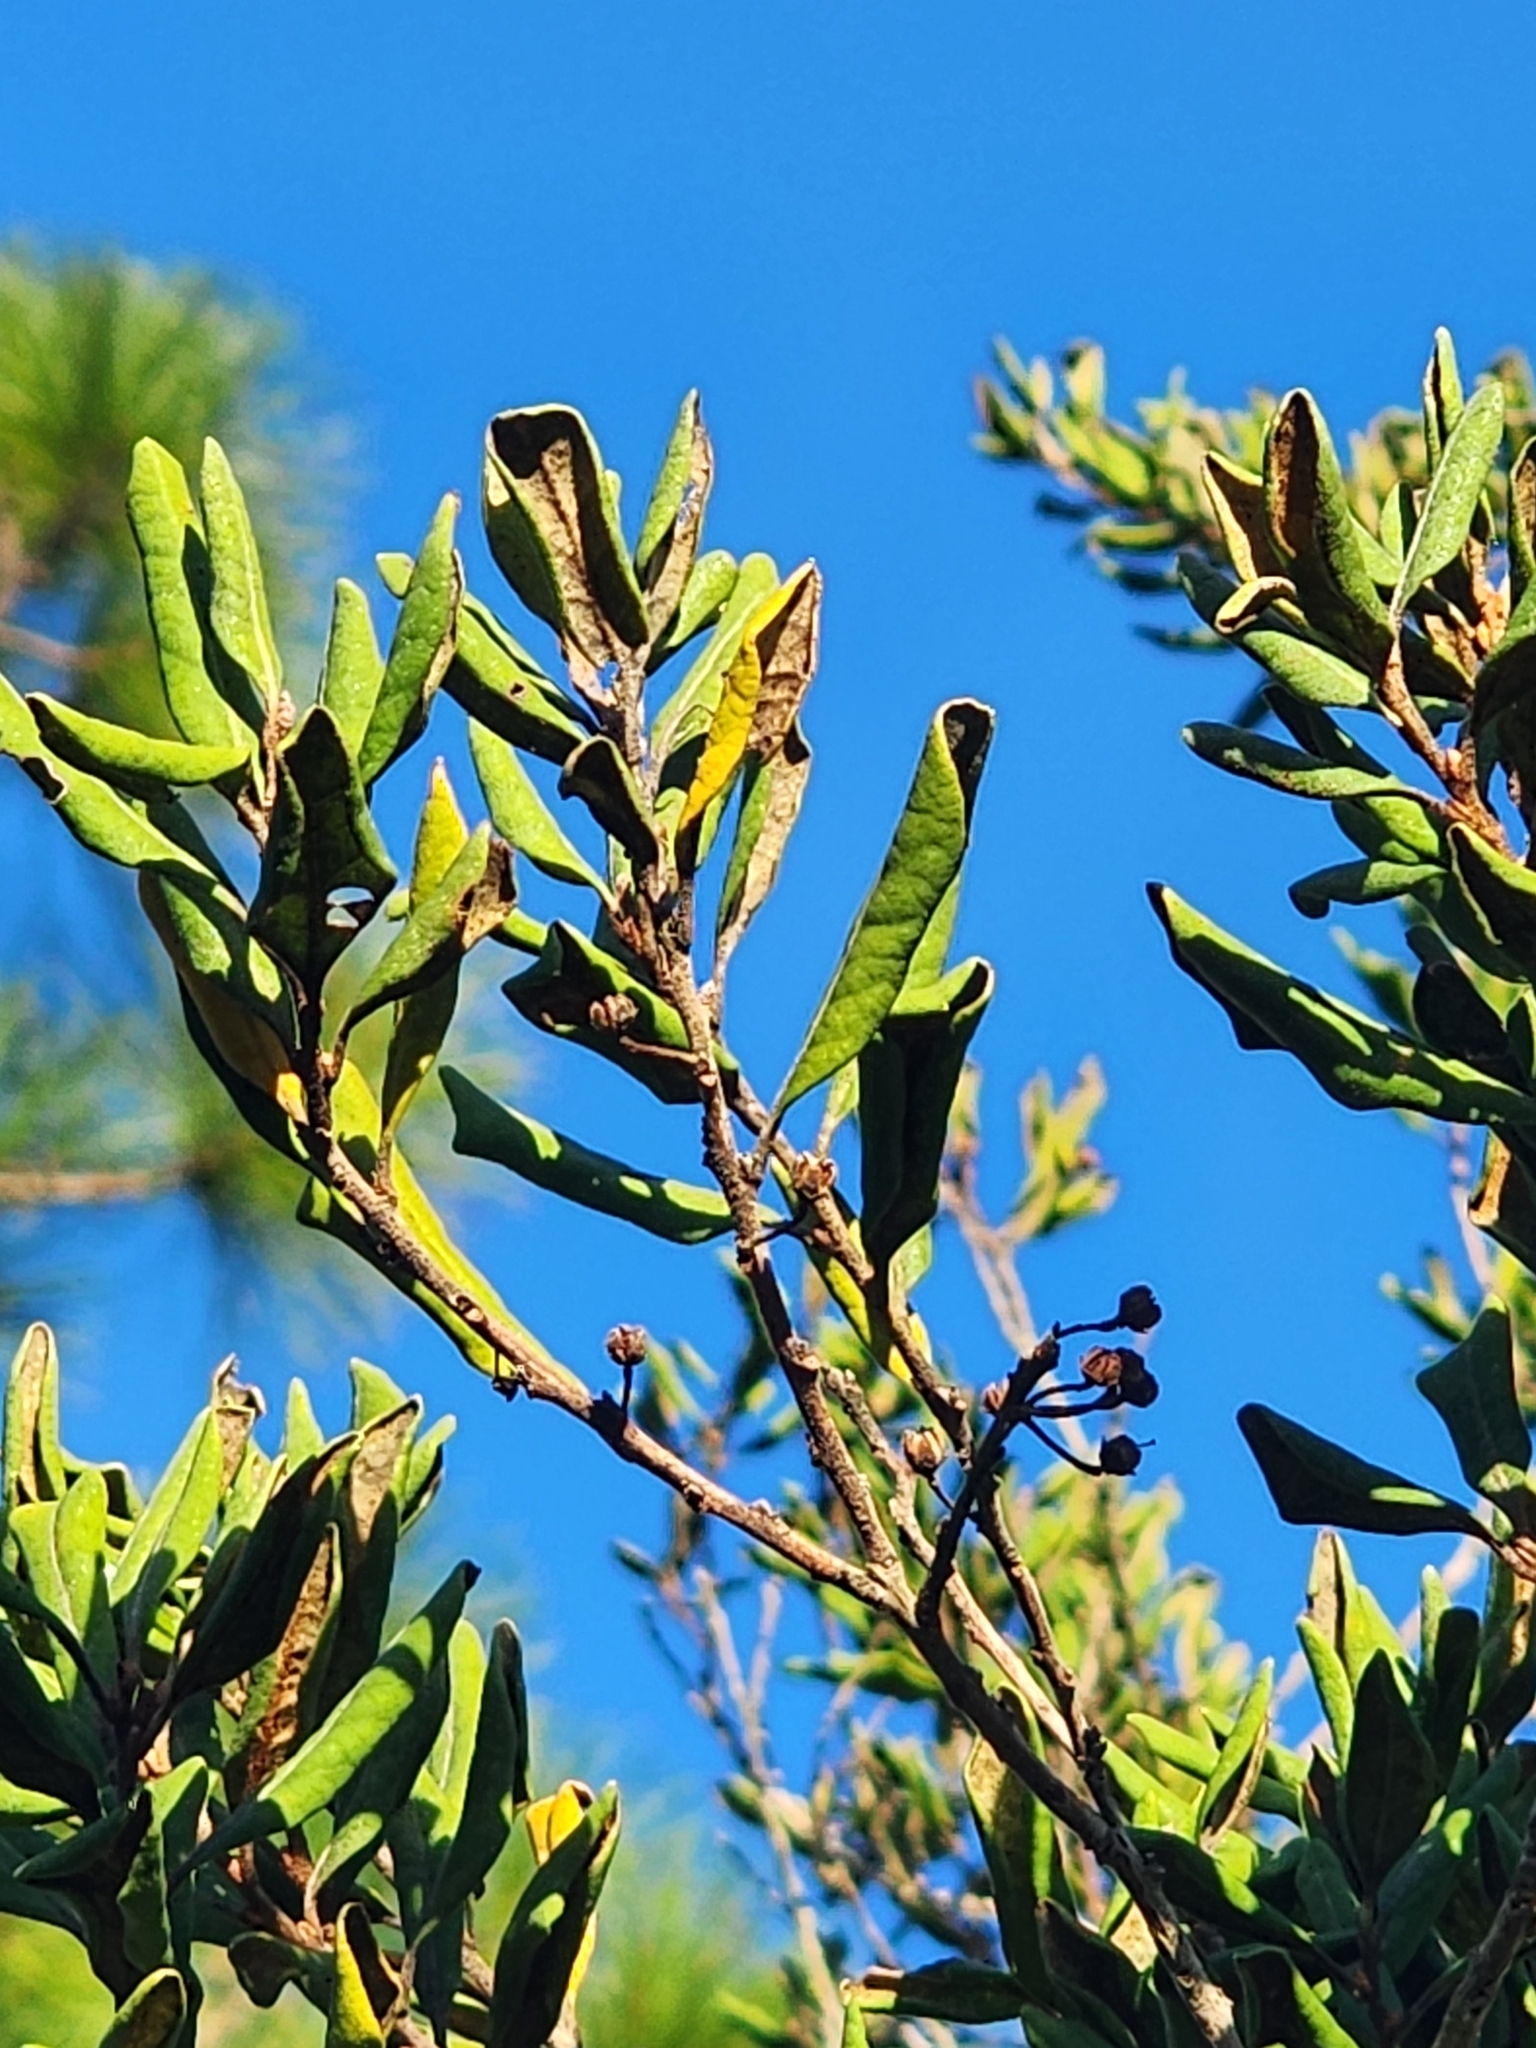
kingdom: Plantae
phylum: Tracheophyta
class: Magnoliopsida
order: Ericales
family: Ericaceae
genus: Lyonia
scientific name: Lyonia ferruginea
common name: Rusty lyonia
